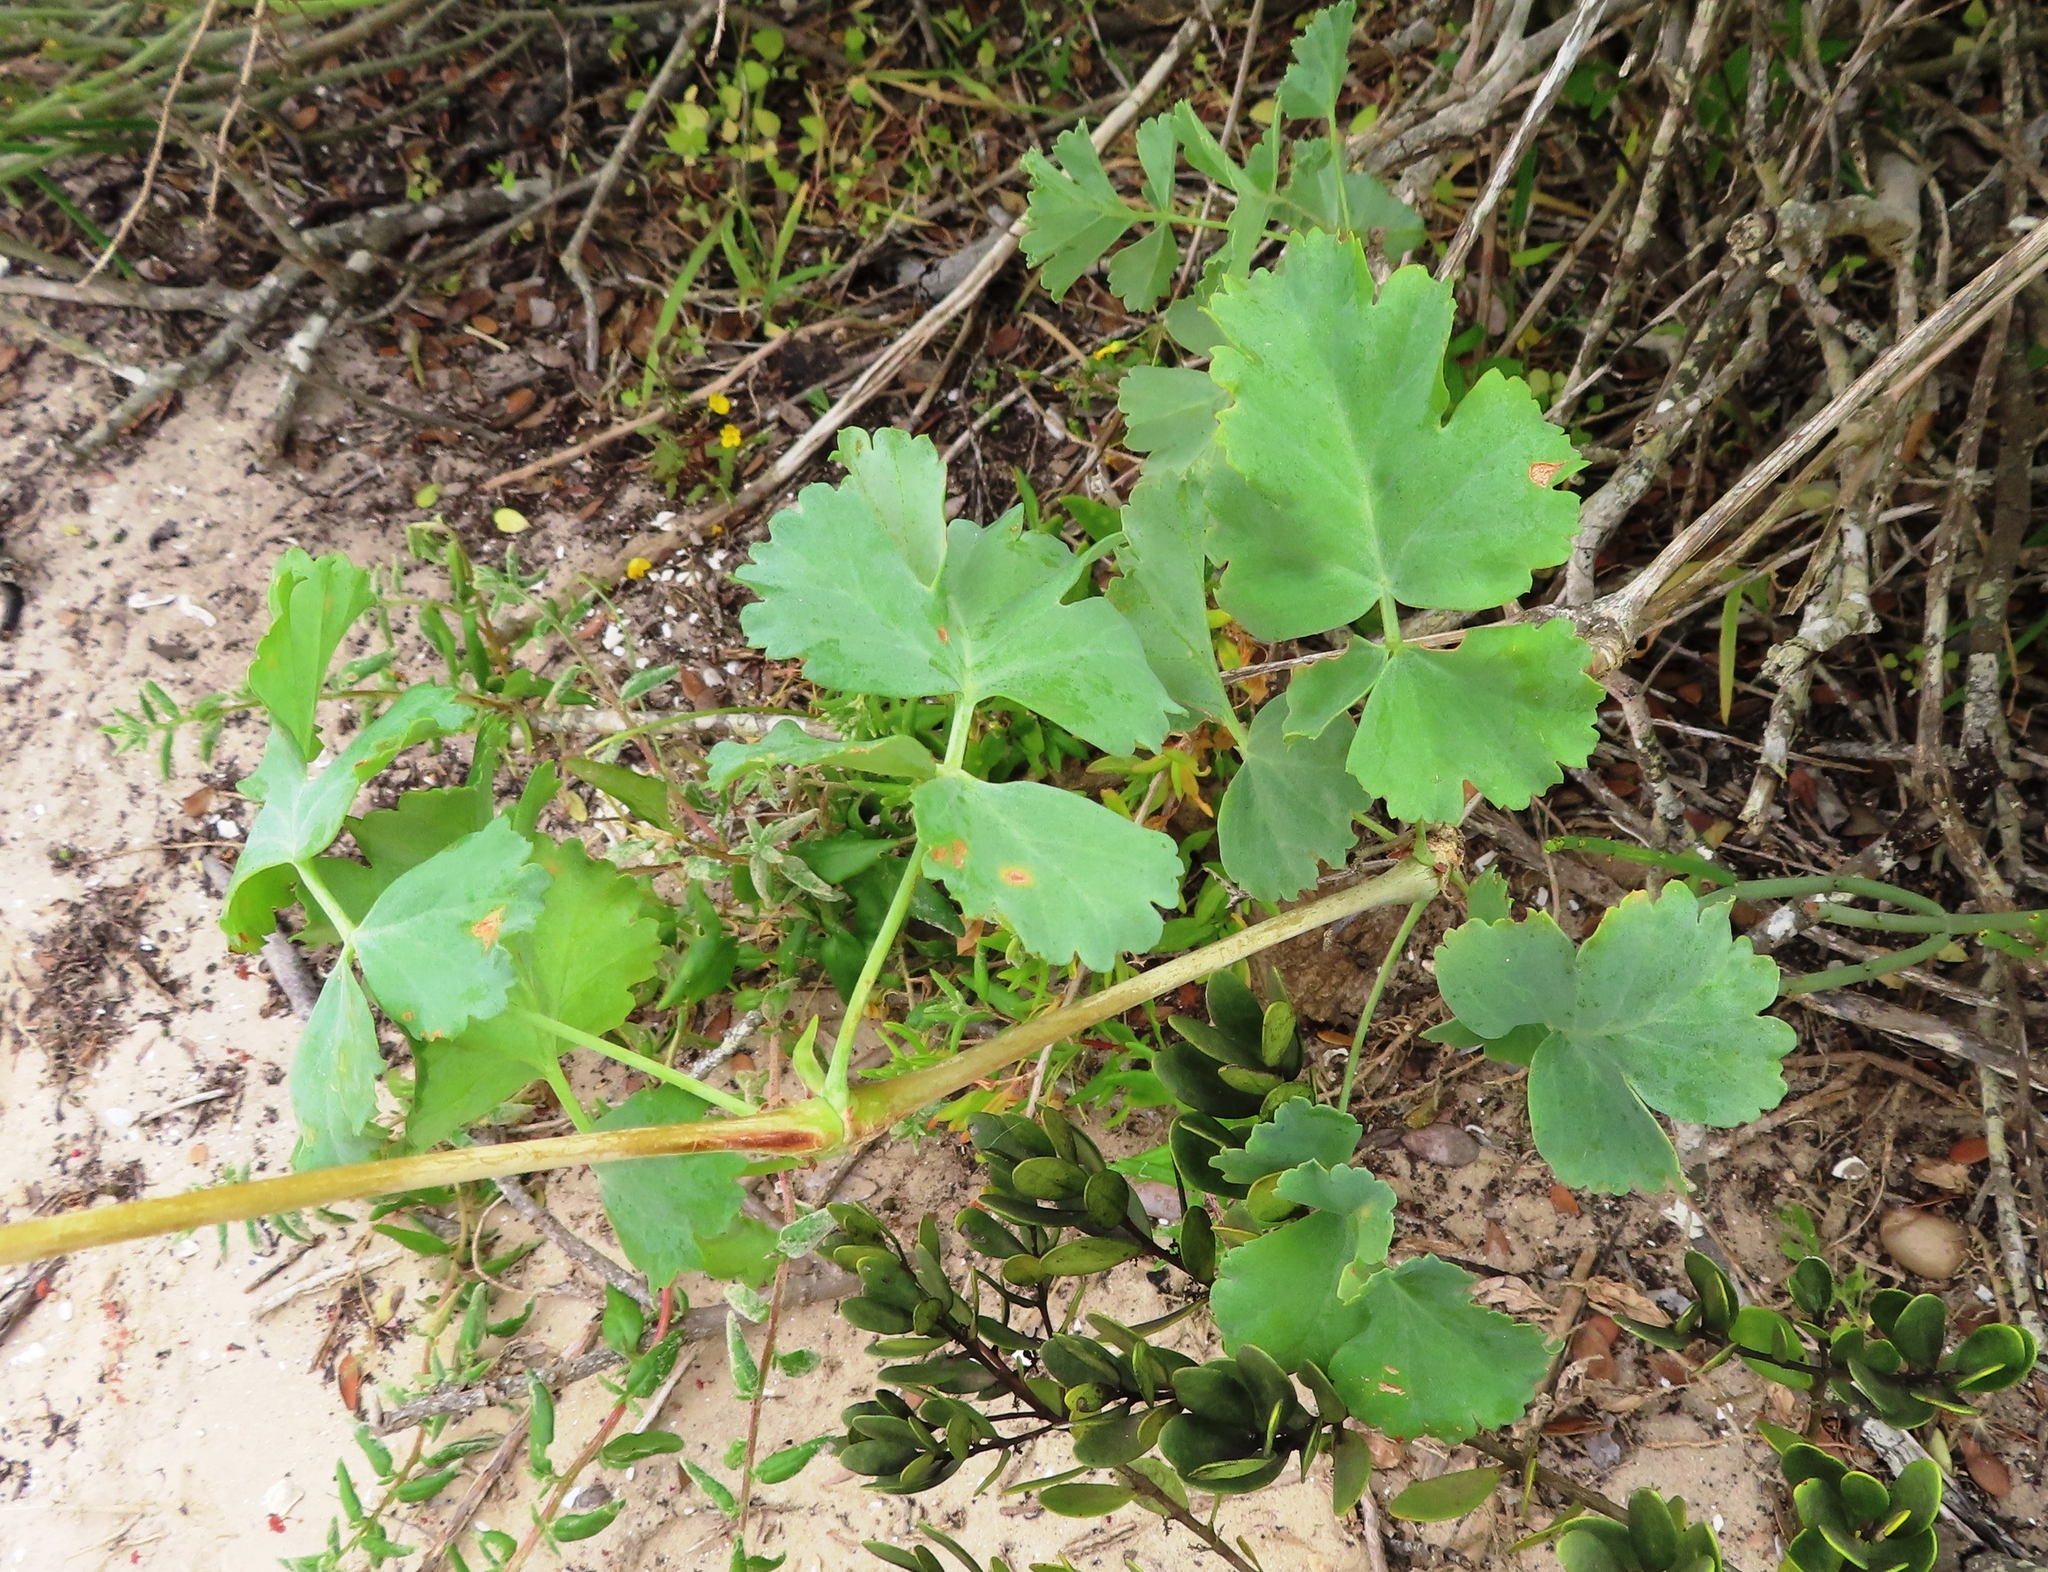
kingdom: Plantae
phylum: Tracheophyta
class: Magnoliopsida
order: Geraniales
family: Geraniaceae
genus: Pelargonium
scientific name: Pelargonium gibbosum
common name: Gouty geranium
